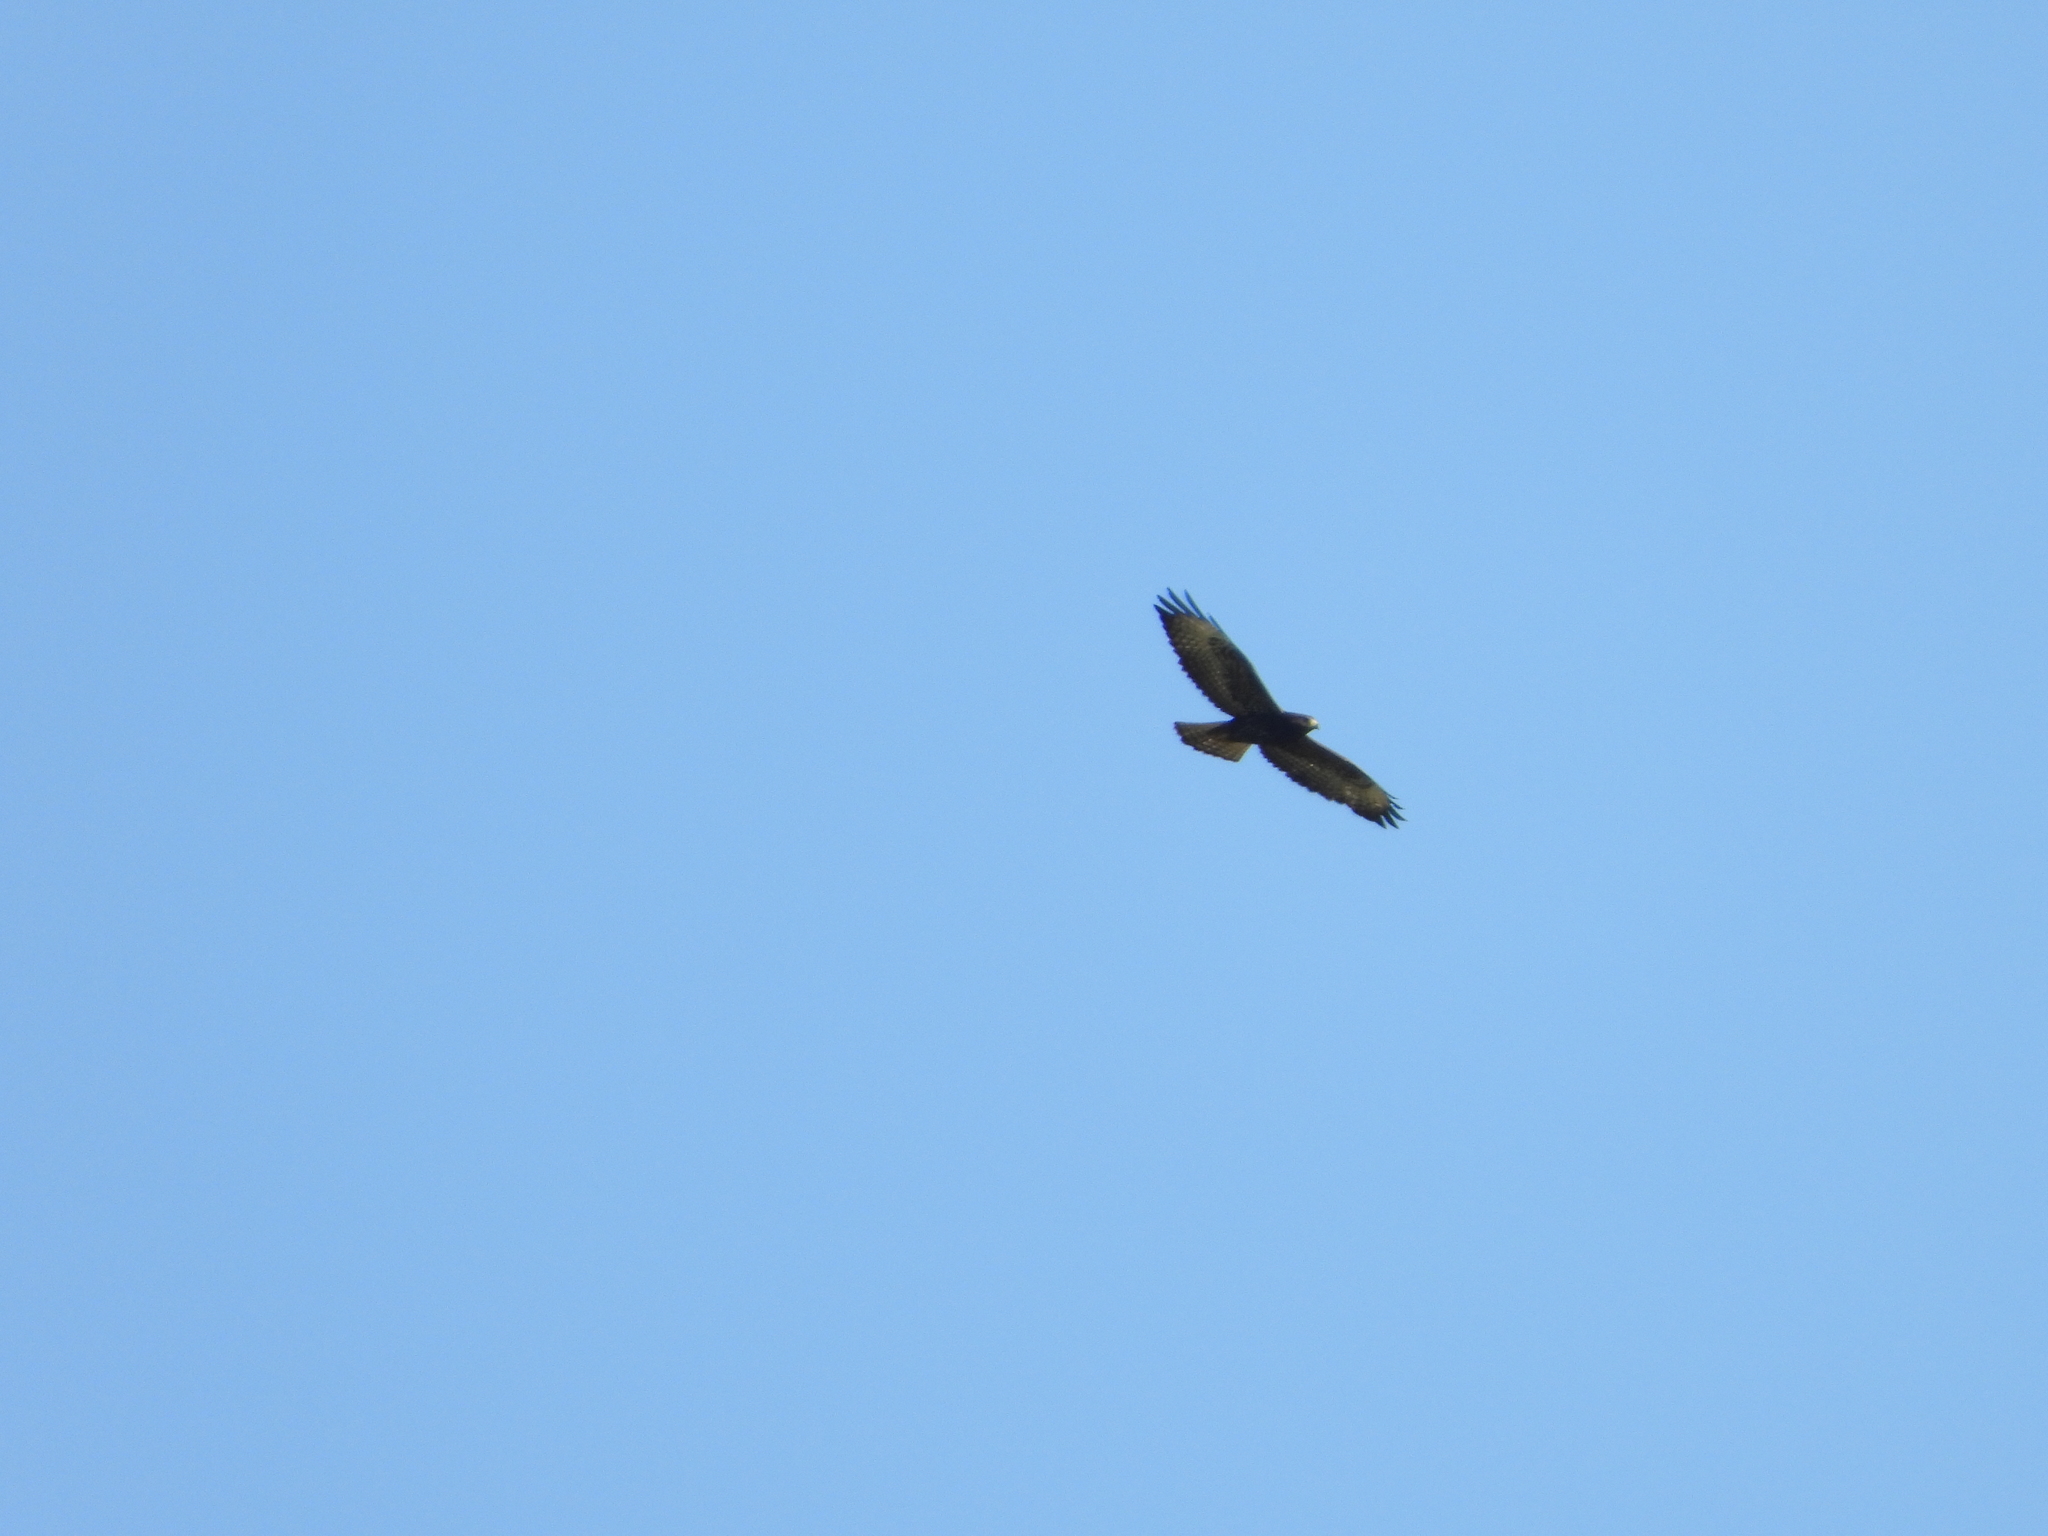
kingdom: Animalia
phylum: Chordata
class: Aves
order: Accipitriformes
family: Accipitridae
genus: Buteo
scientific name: Buteo brachyurus
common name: Short-tailed hawk
